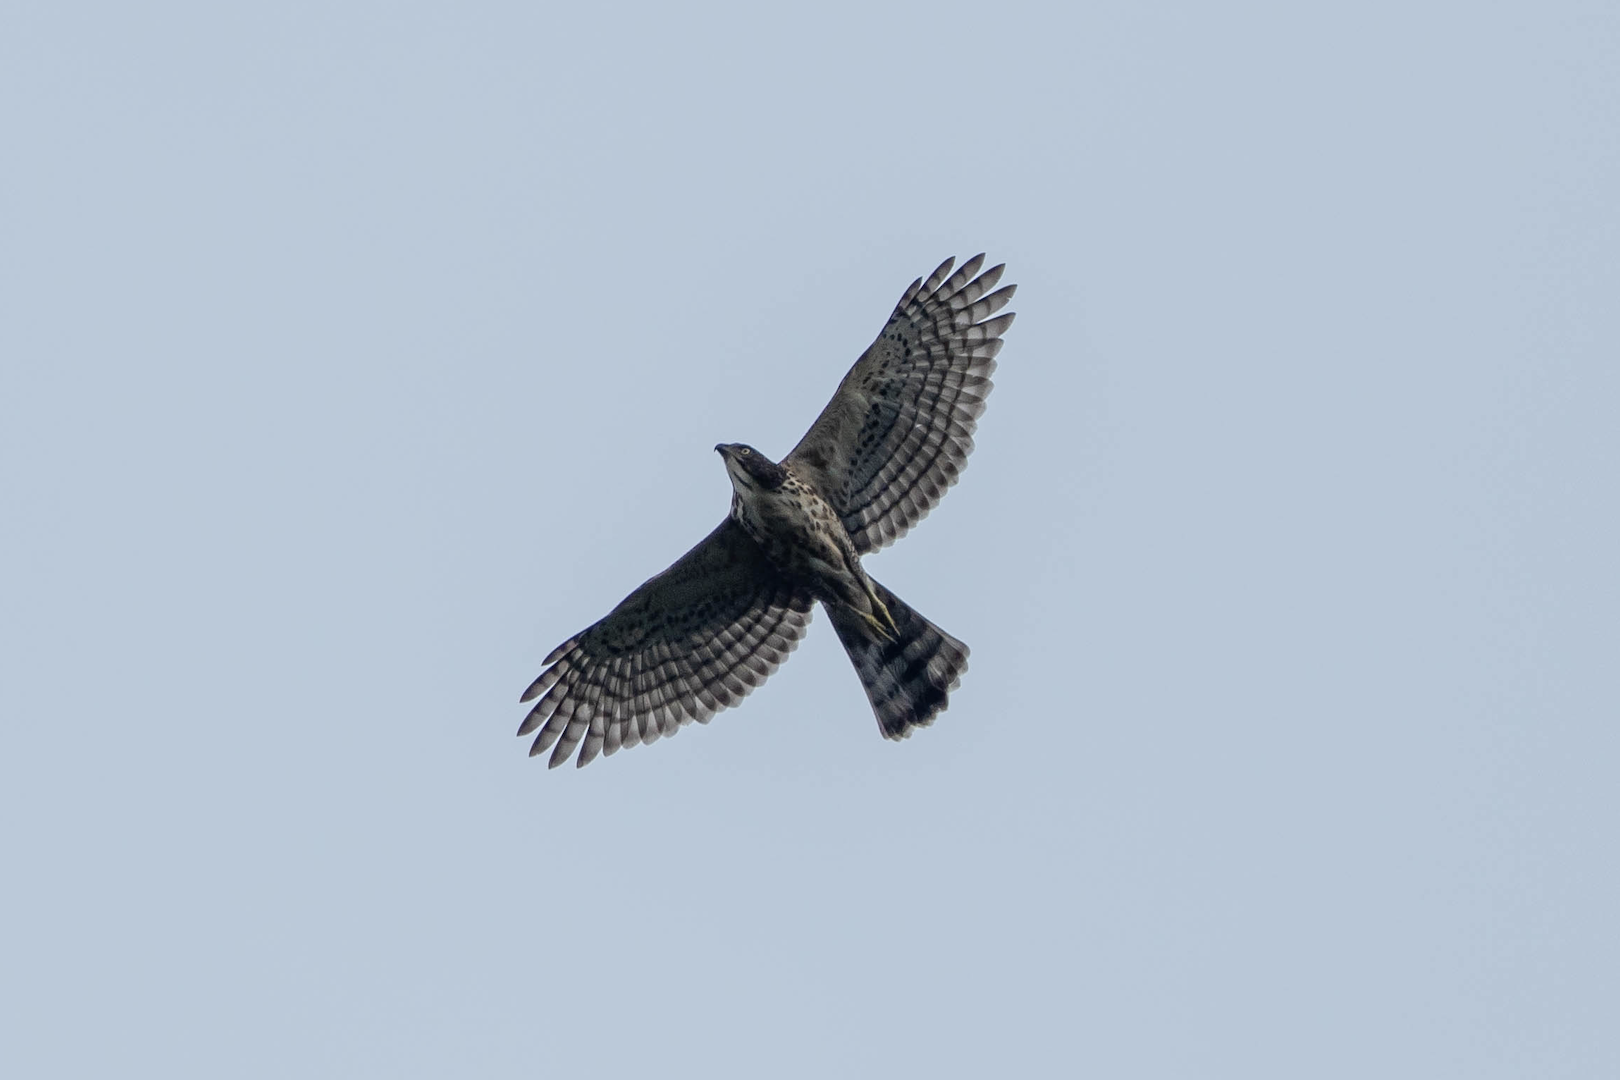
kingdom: Animalia
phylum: Chordata
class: Aves
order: Accipitriformes
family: Accipitridae
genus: Accipiter
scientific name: Accipiter trivirgatus
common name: Crested goshawk
